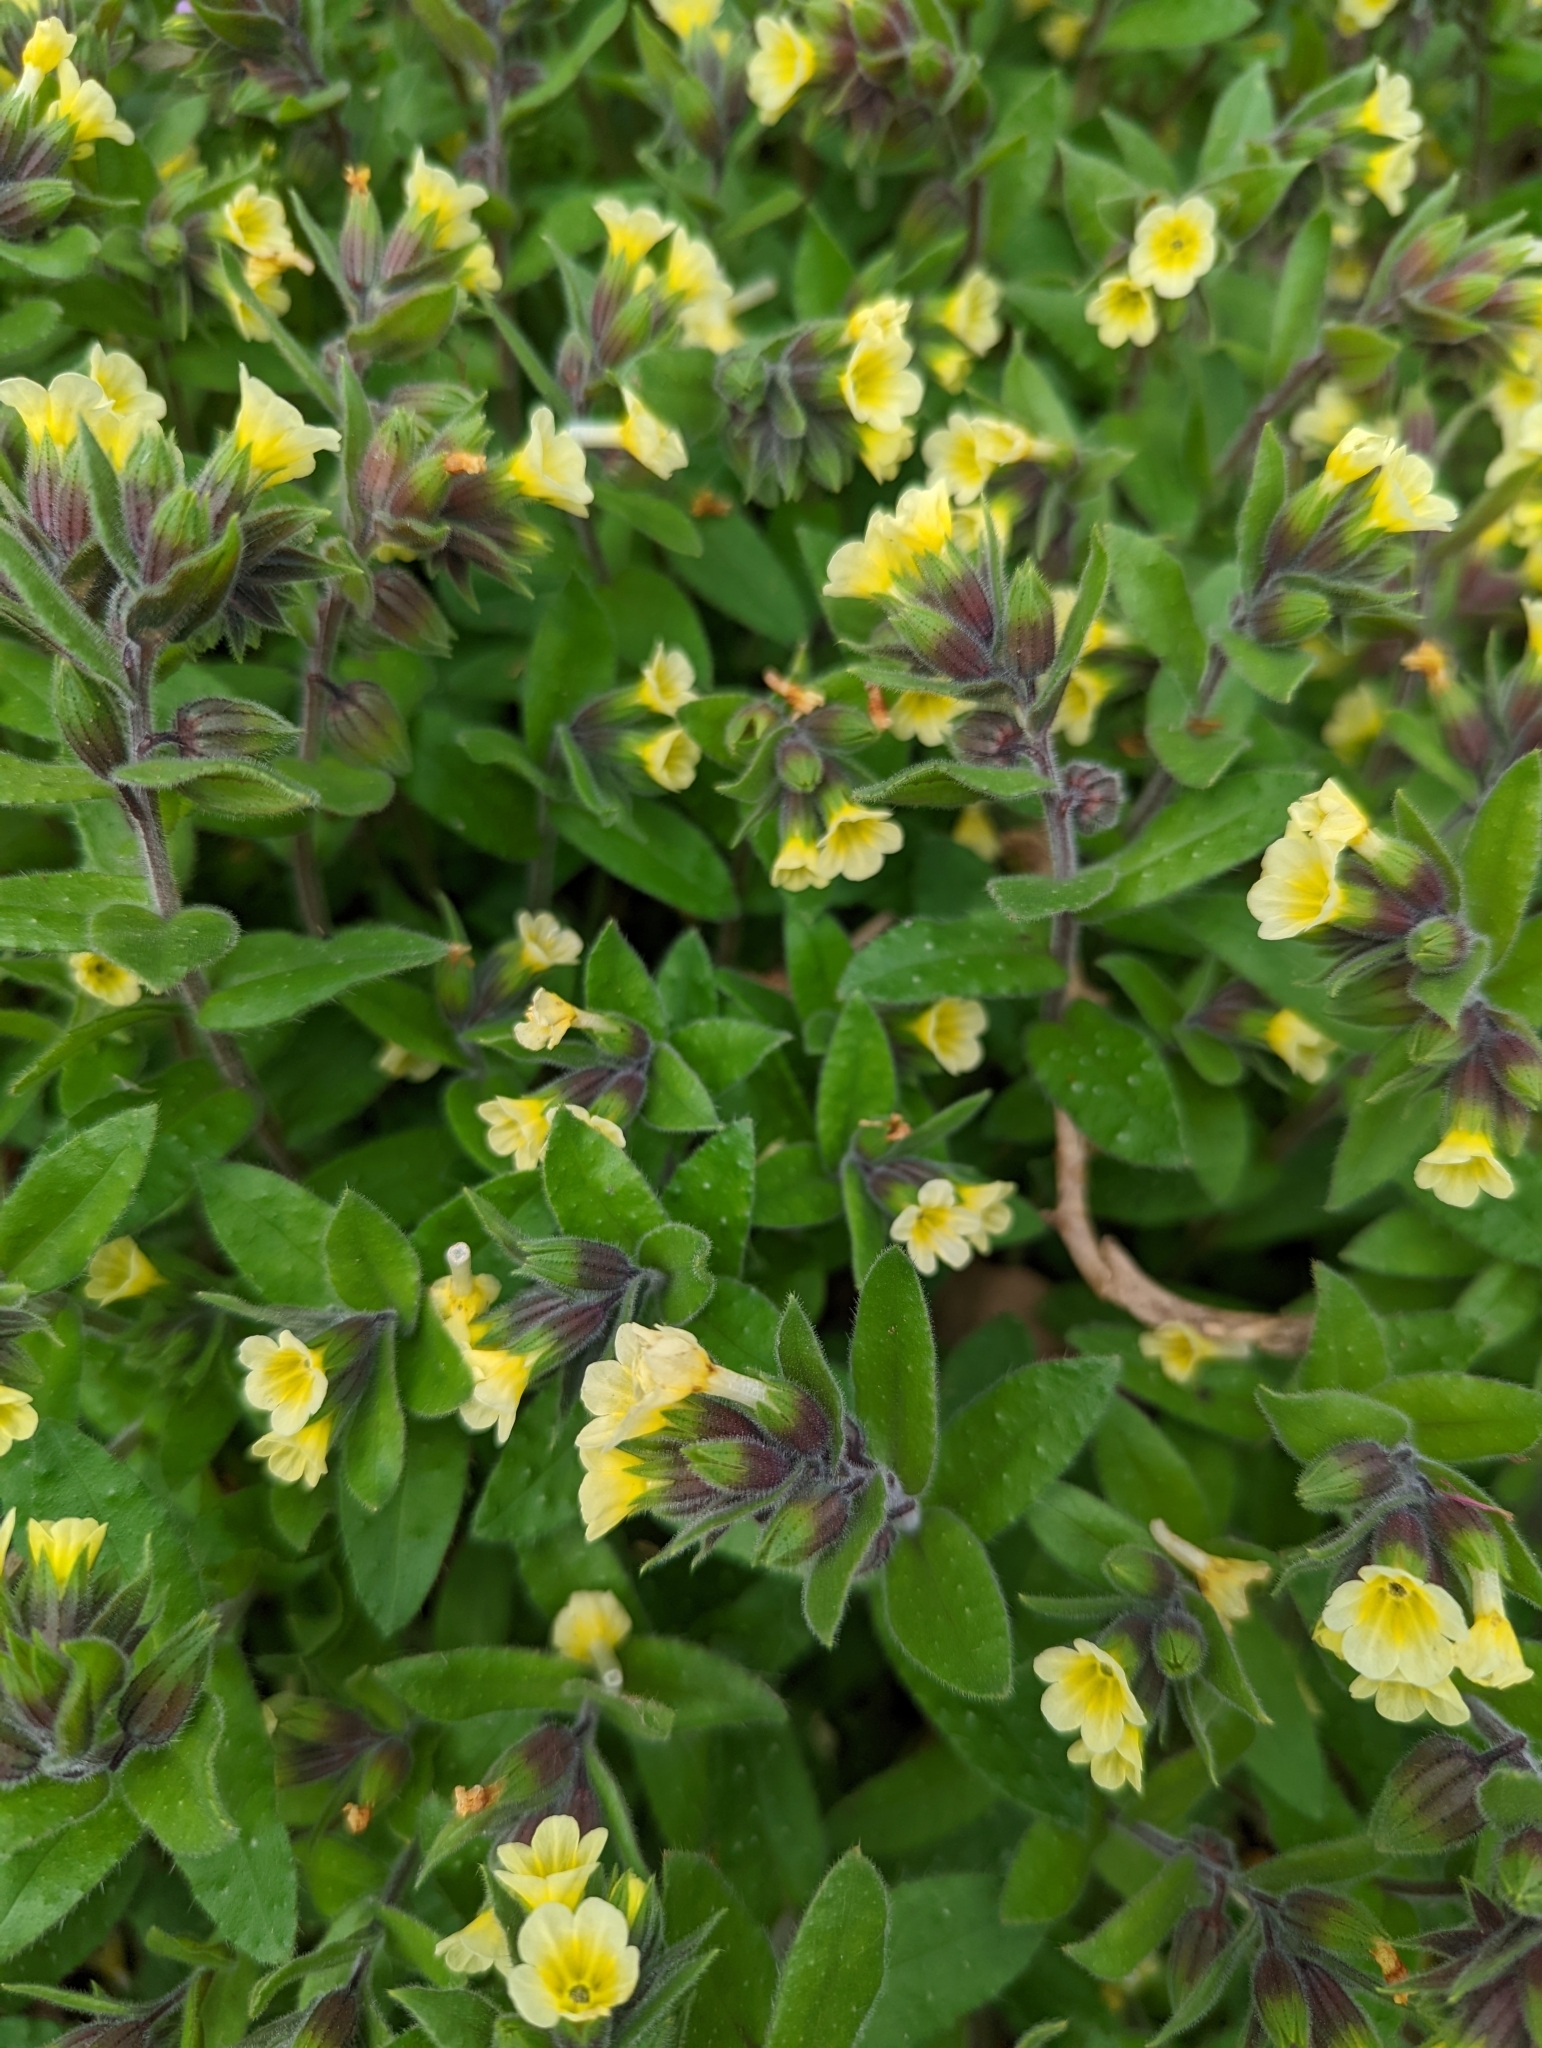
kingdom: Plantae
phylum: Tracheophyta
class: Magnoliopsida
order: Boraginales
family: Boraginaceae
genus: Nonea
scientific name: Nonea lutea
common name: Yellow nonea
